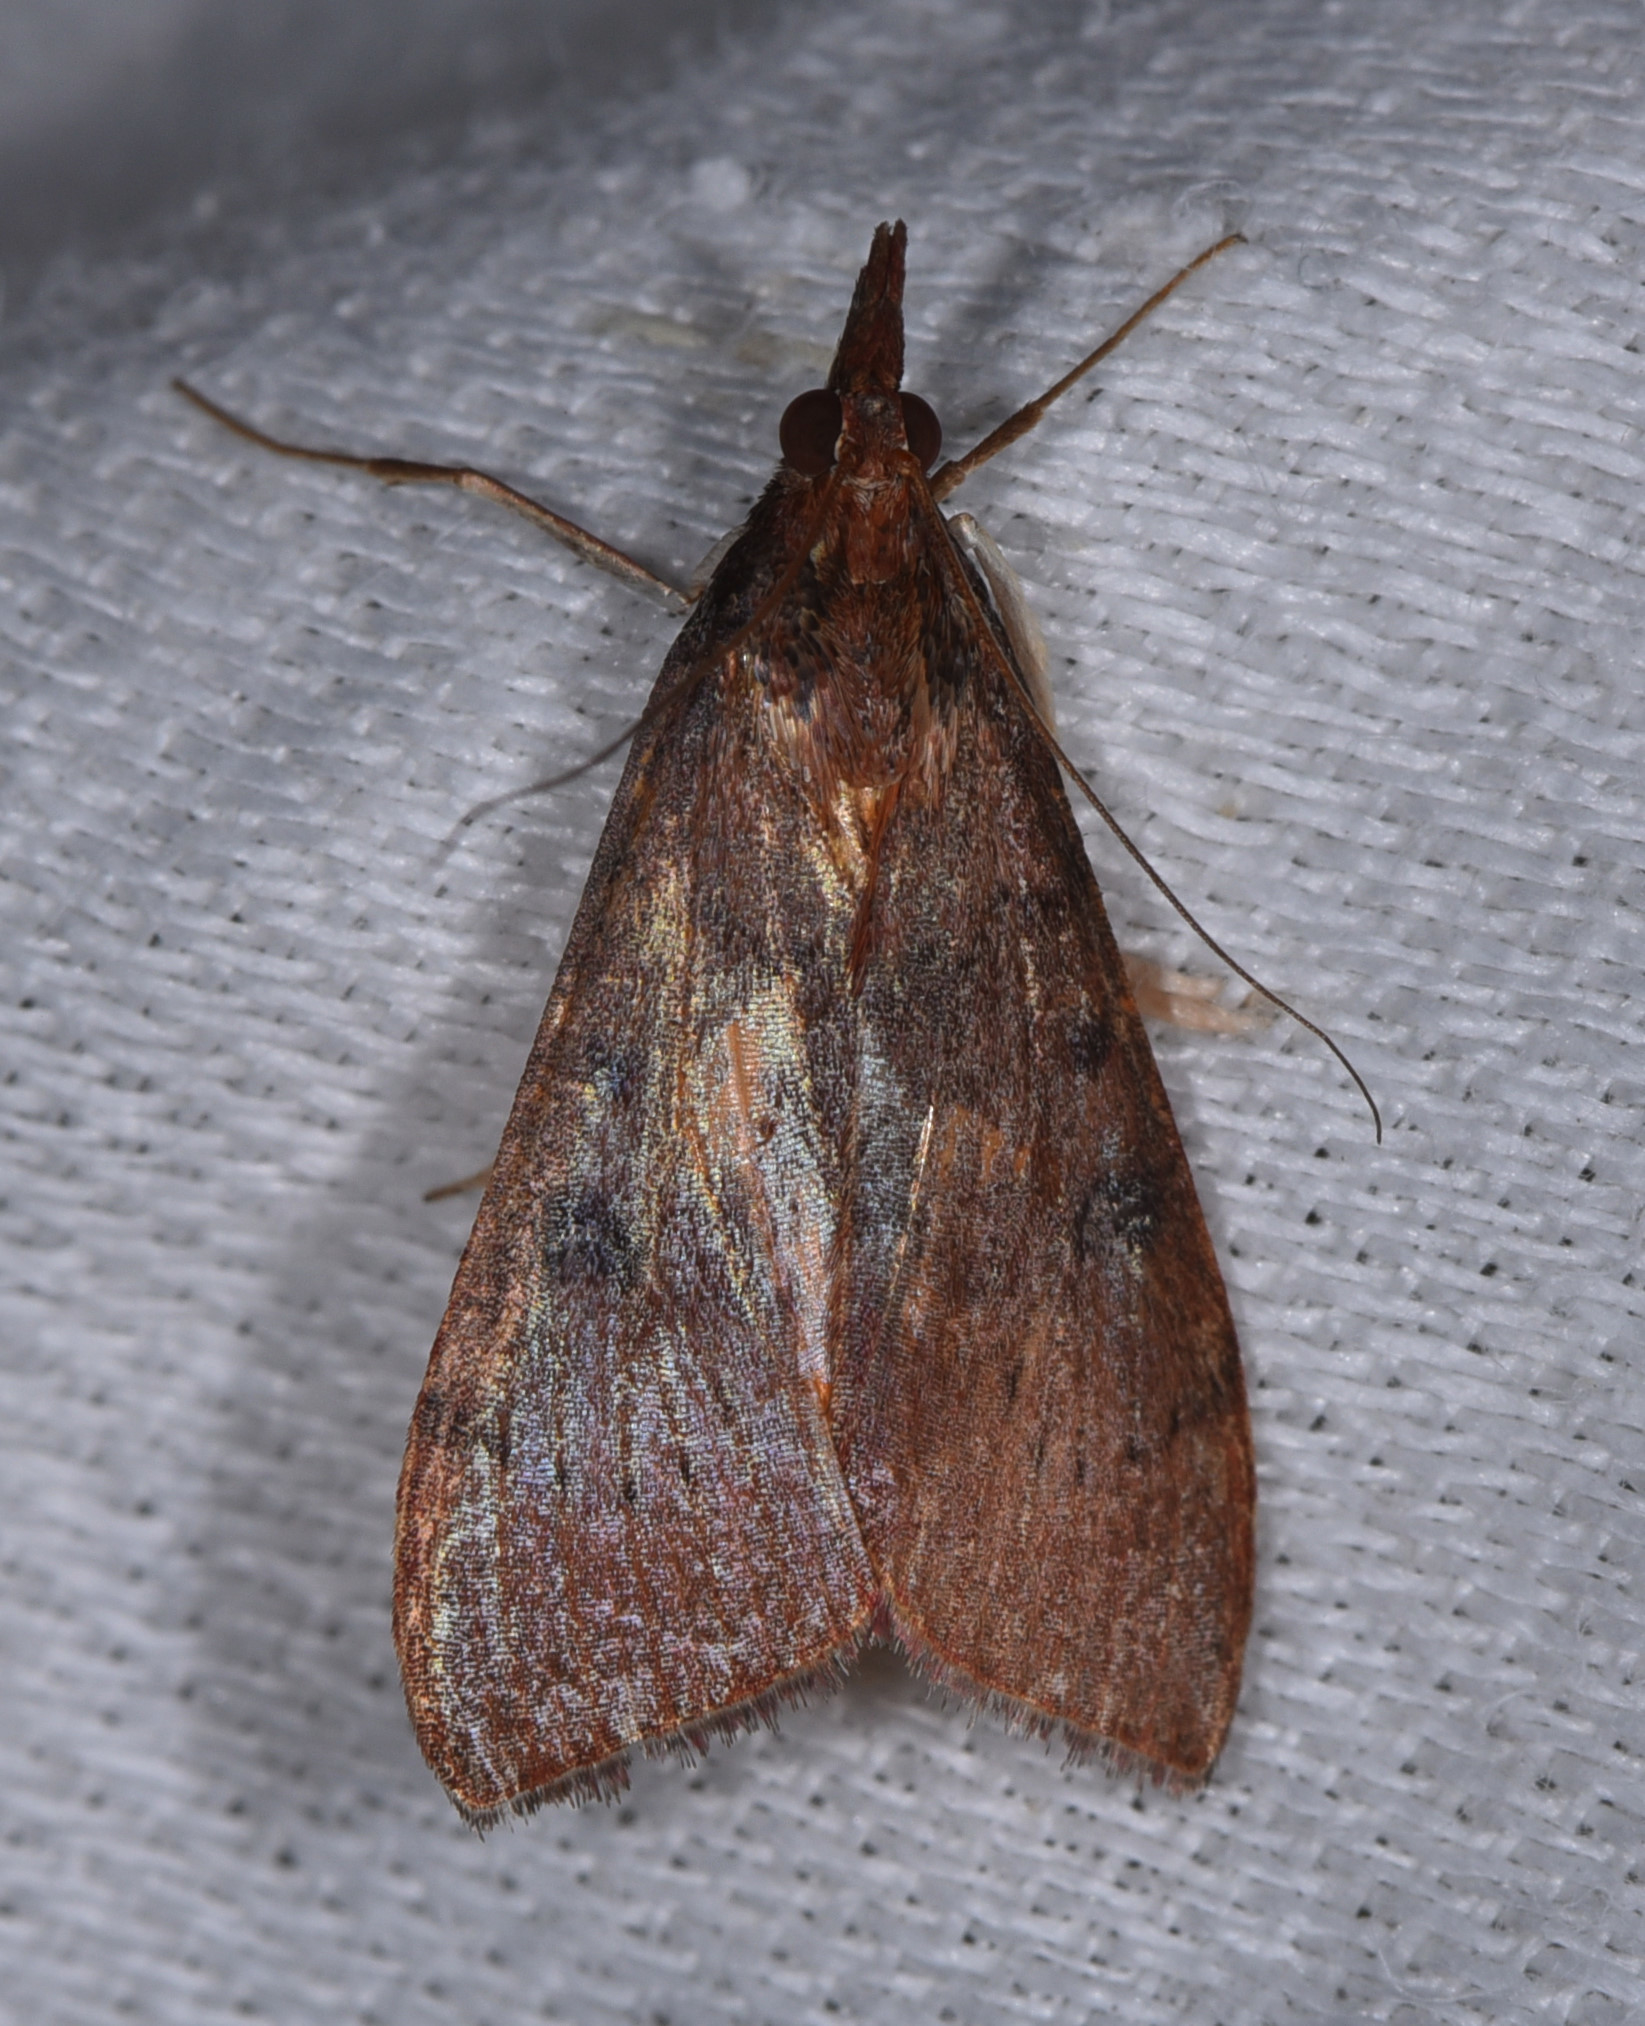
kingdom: Animalia
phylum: Arthropoda
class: Insecta
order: Lepidoptera
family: Crambidae
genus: Uresiphita
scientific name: Uresiphita reversalis
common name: Genista broom moth
